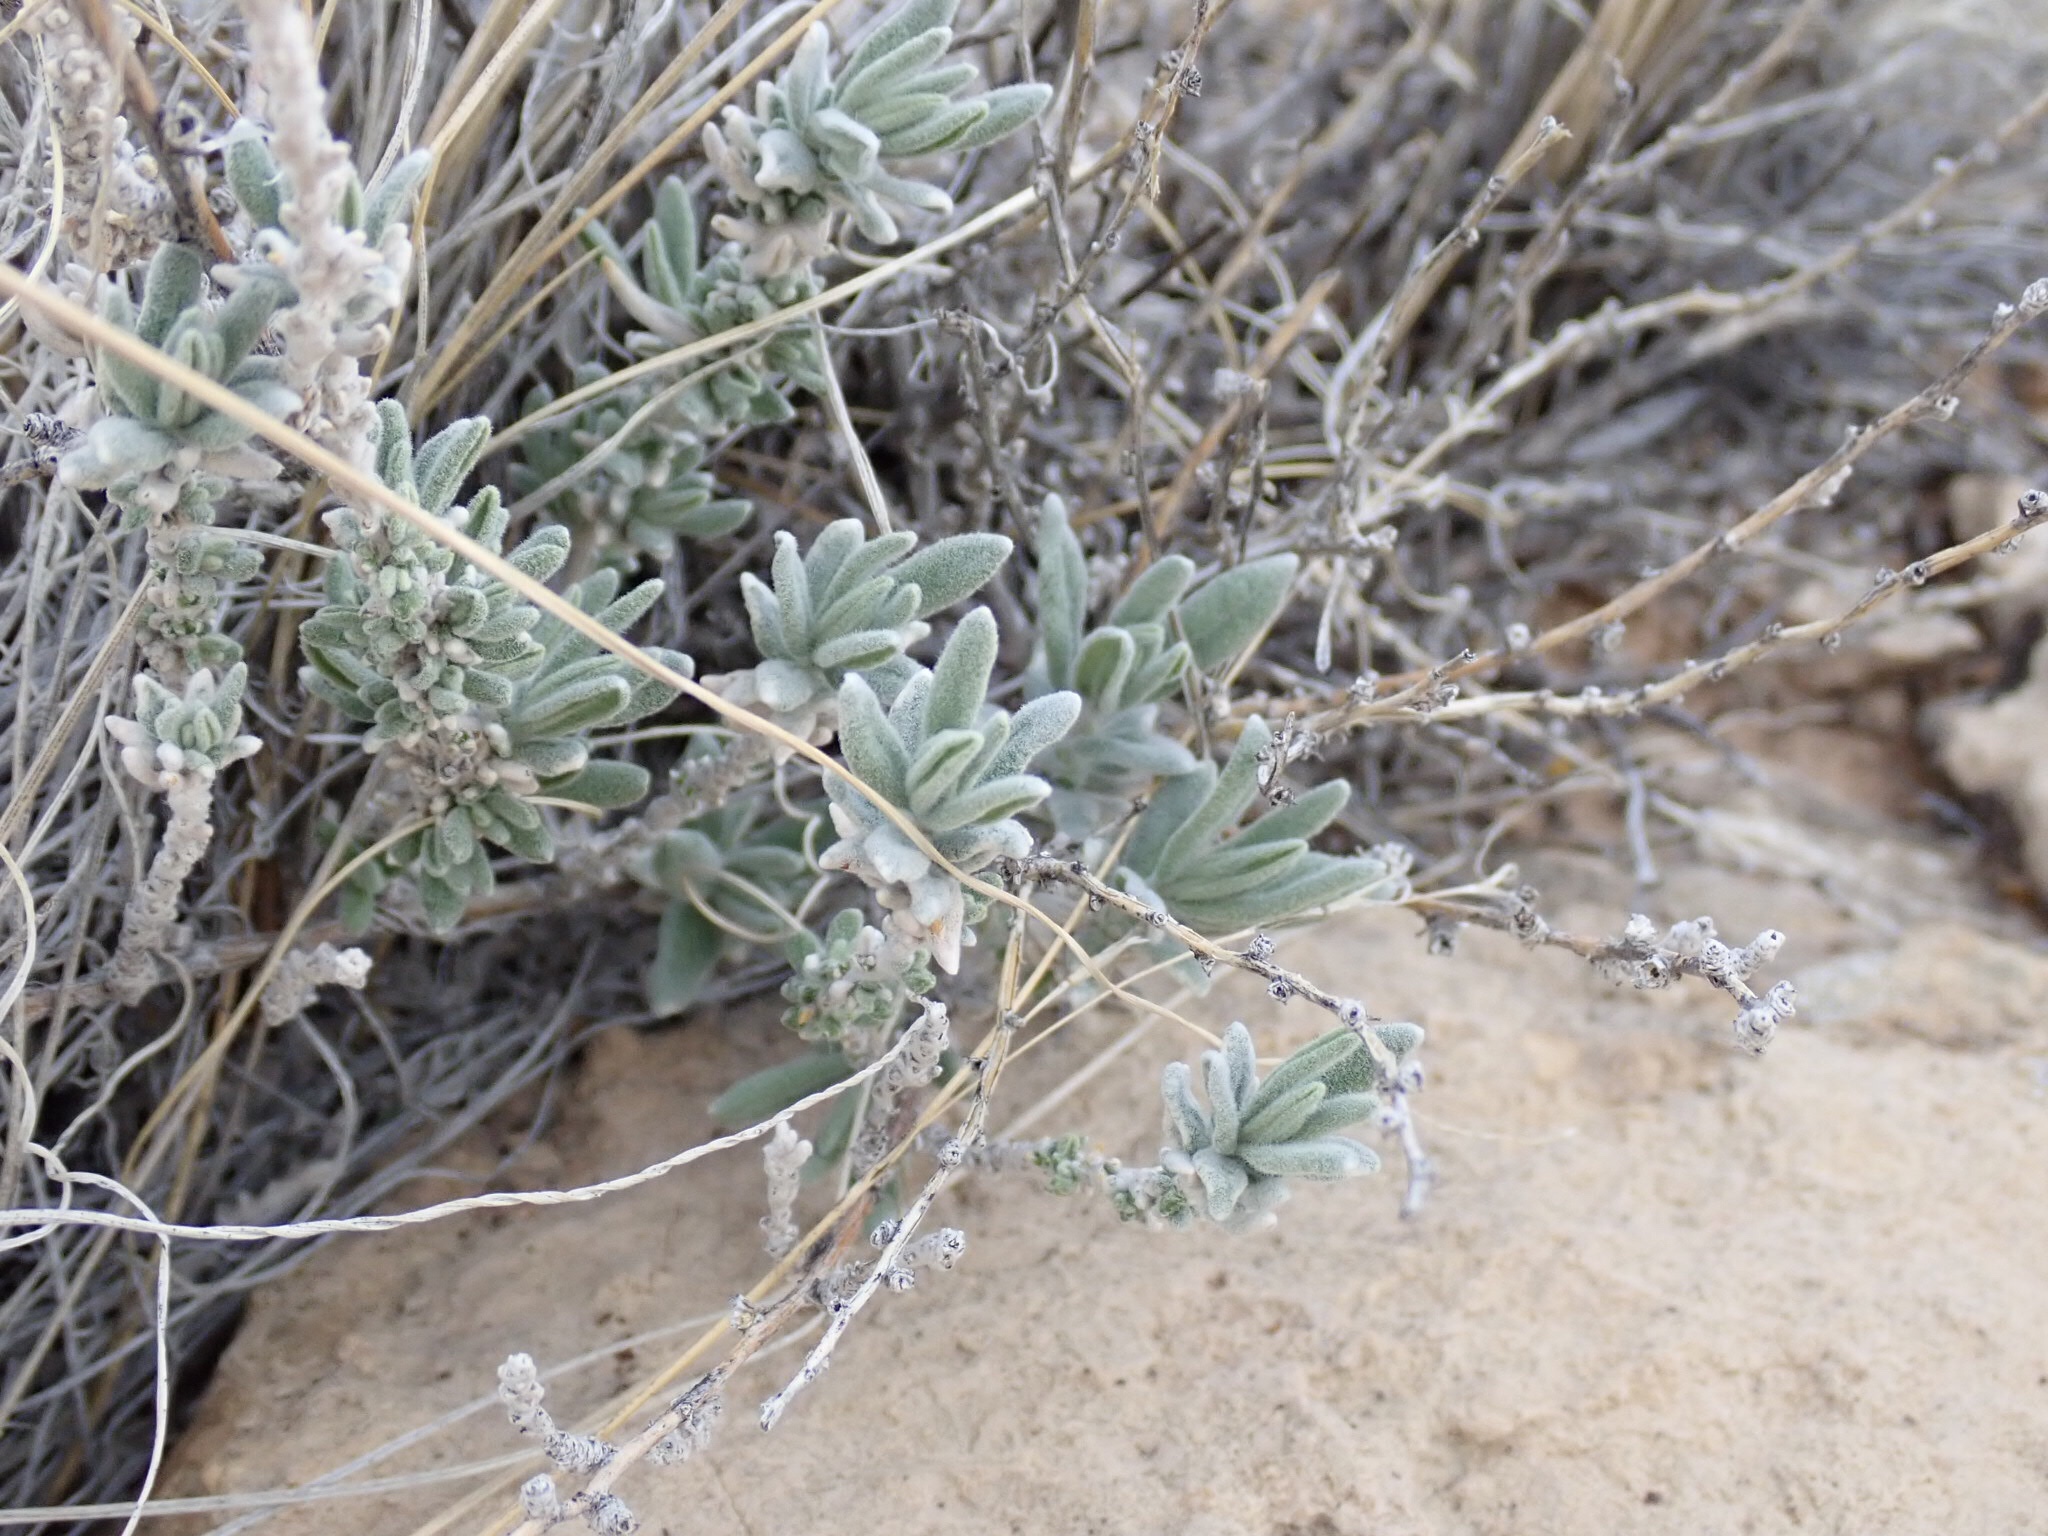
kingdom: Plantae
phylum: Tracheophyta
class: Magnoliopsida
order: Caryophyllales
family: Amaranthaceae
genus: Krascheninnikovia
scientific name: Krascheninnikovia lanata
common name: Winterfat
